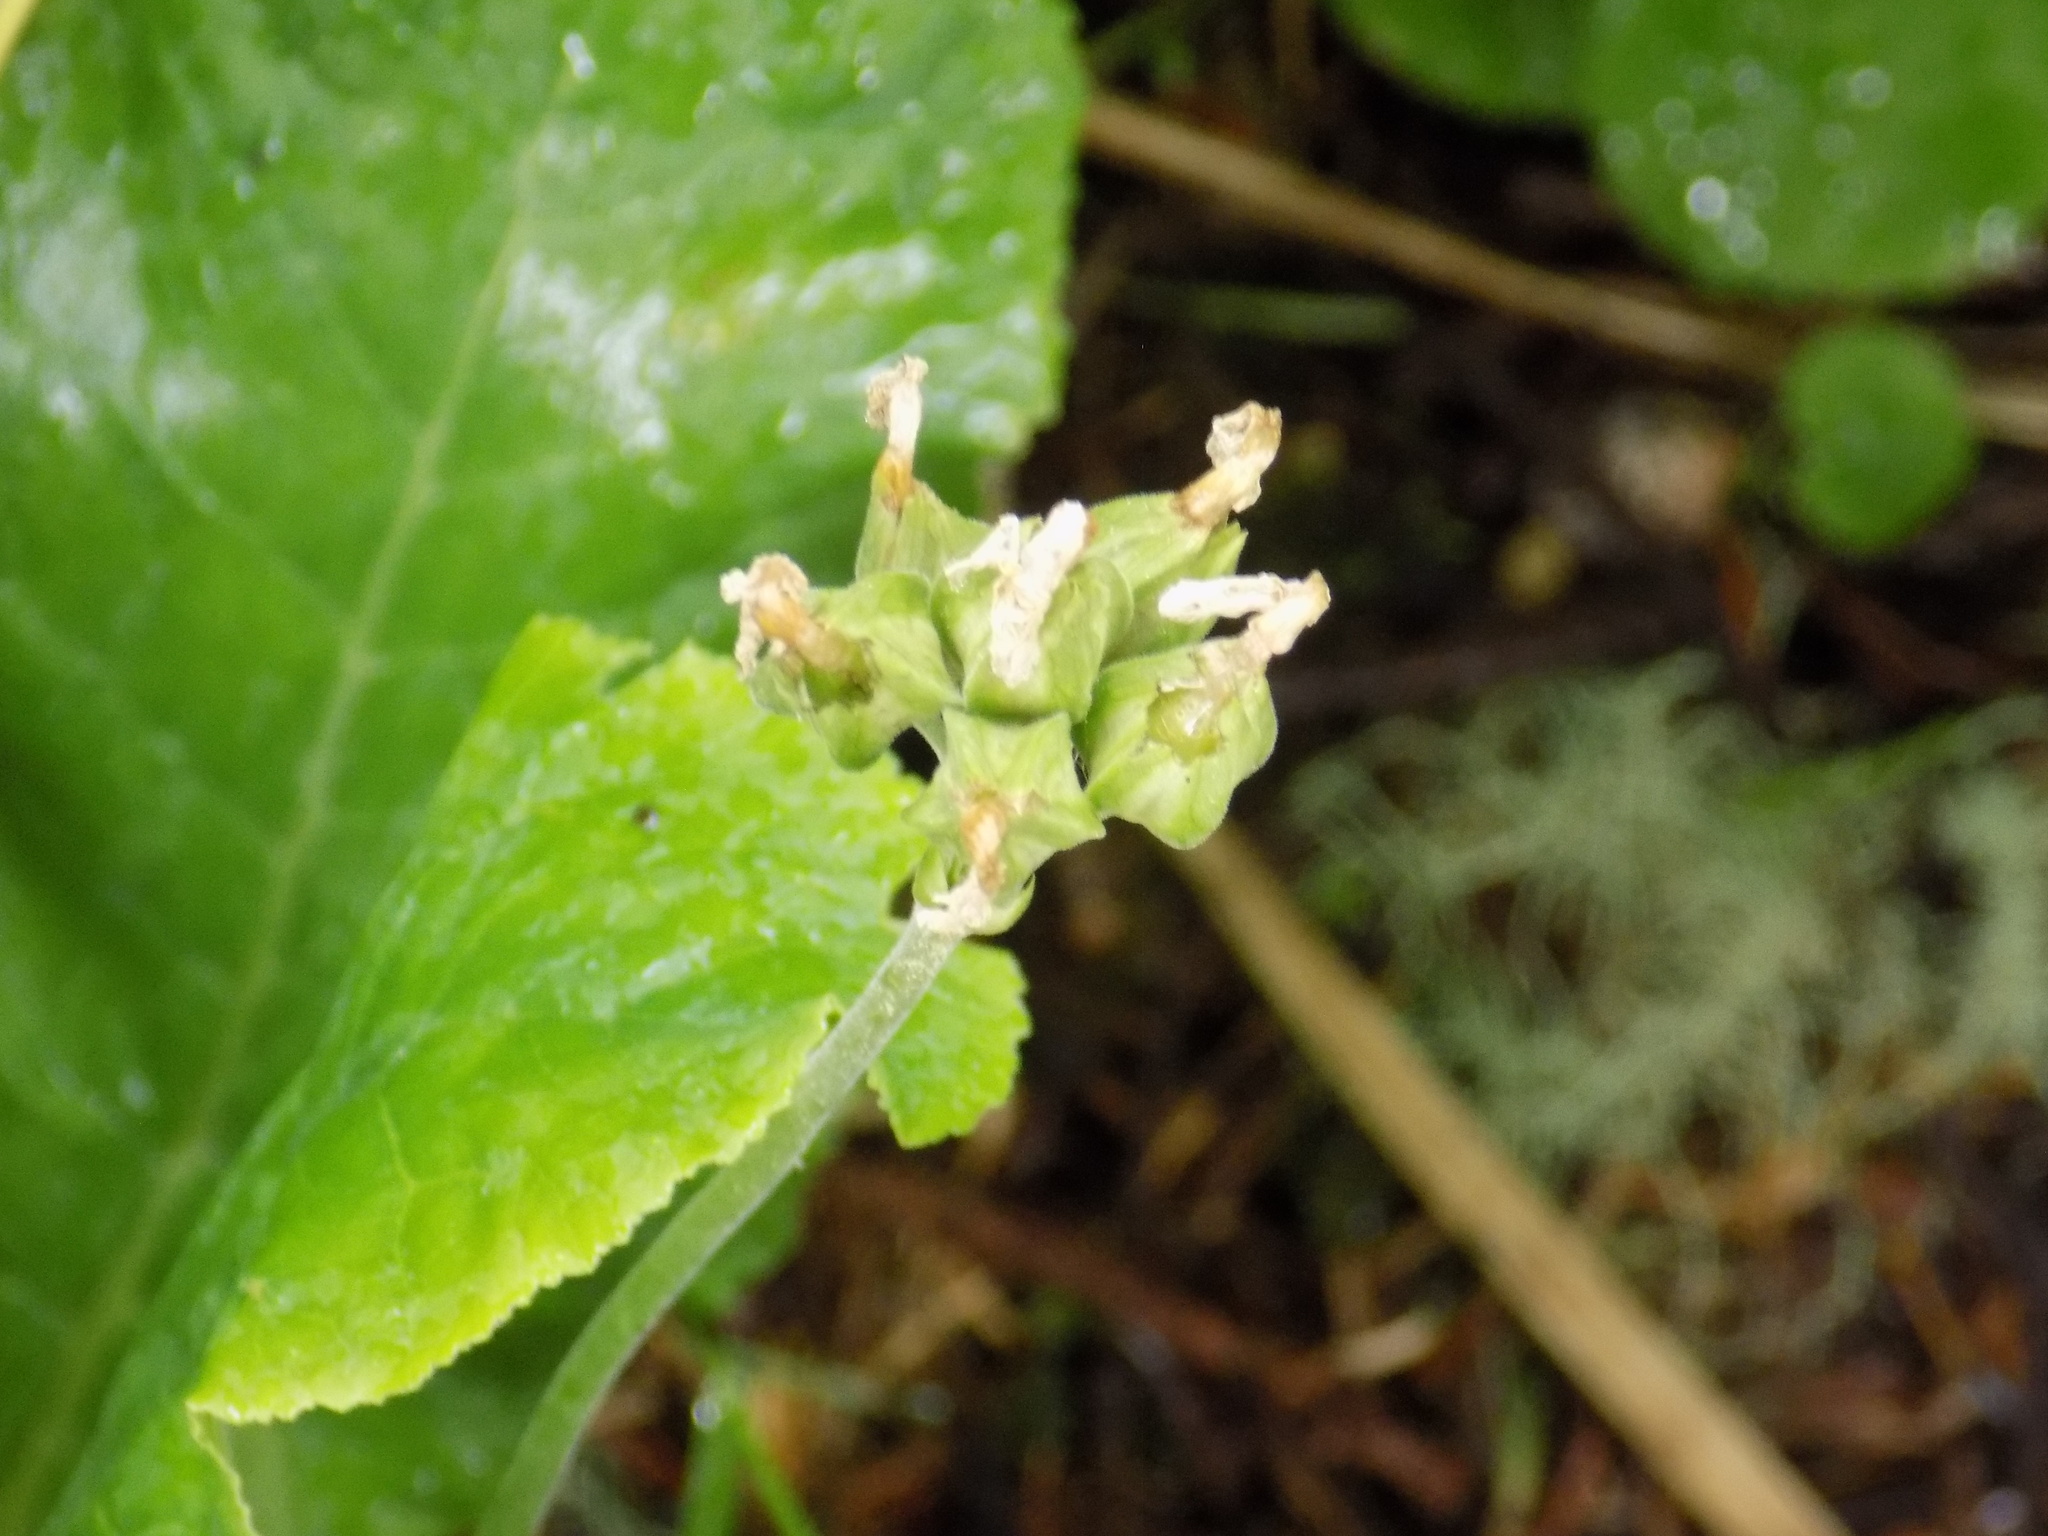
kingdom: Plantae
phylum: Tracheophyta
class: Magnoliopsida
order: Ericales
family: Primulaceae
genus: Primula
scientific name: Primula elatior
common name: Oxlip
